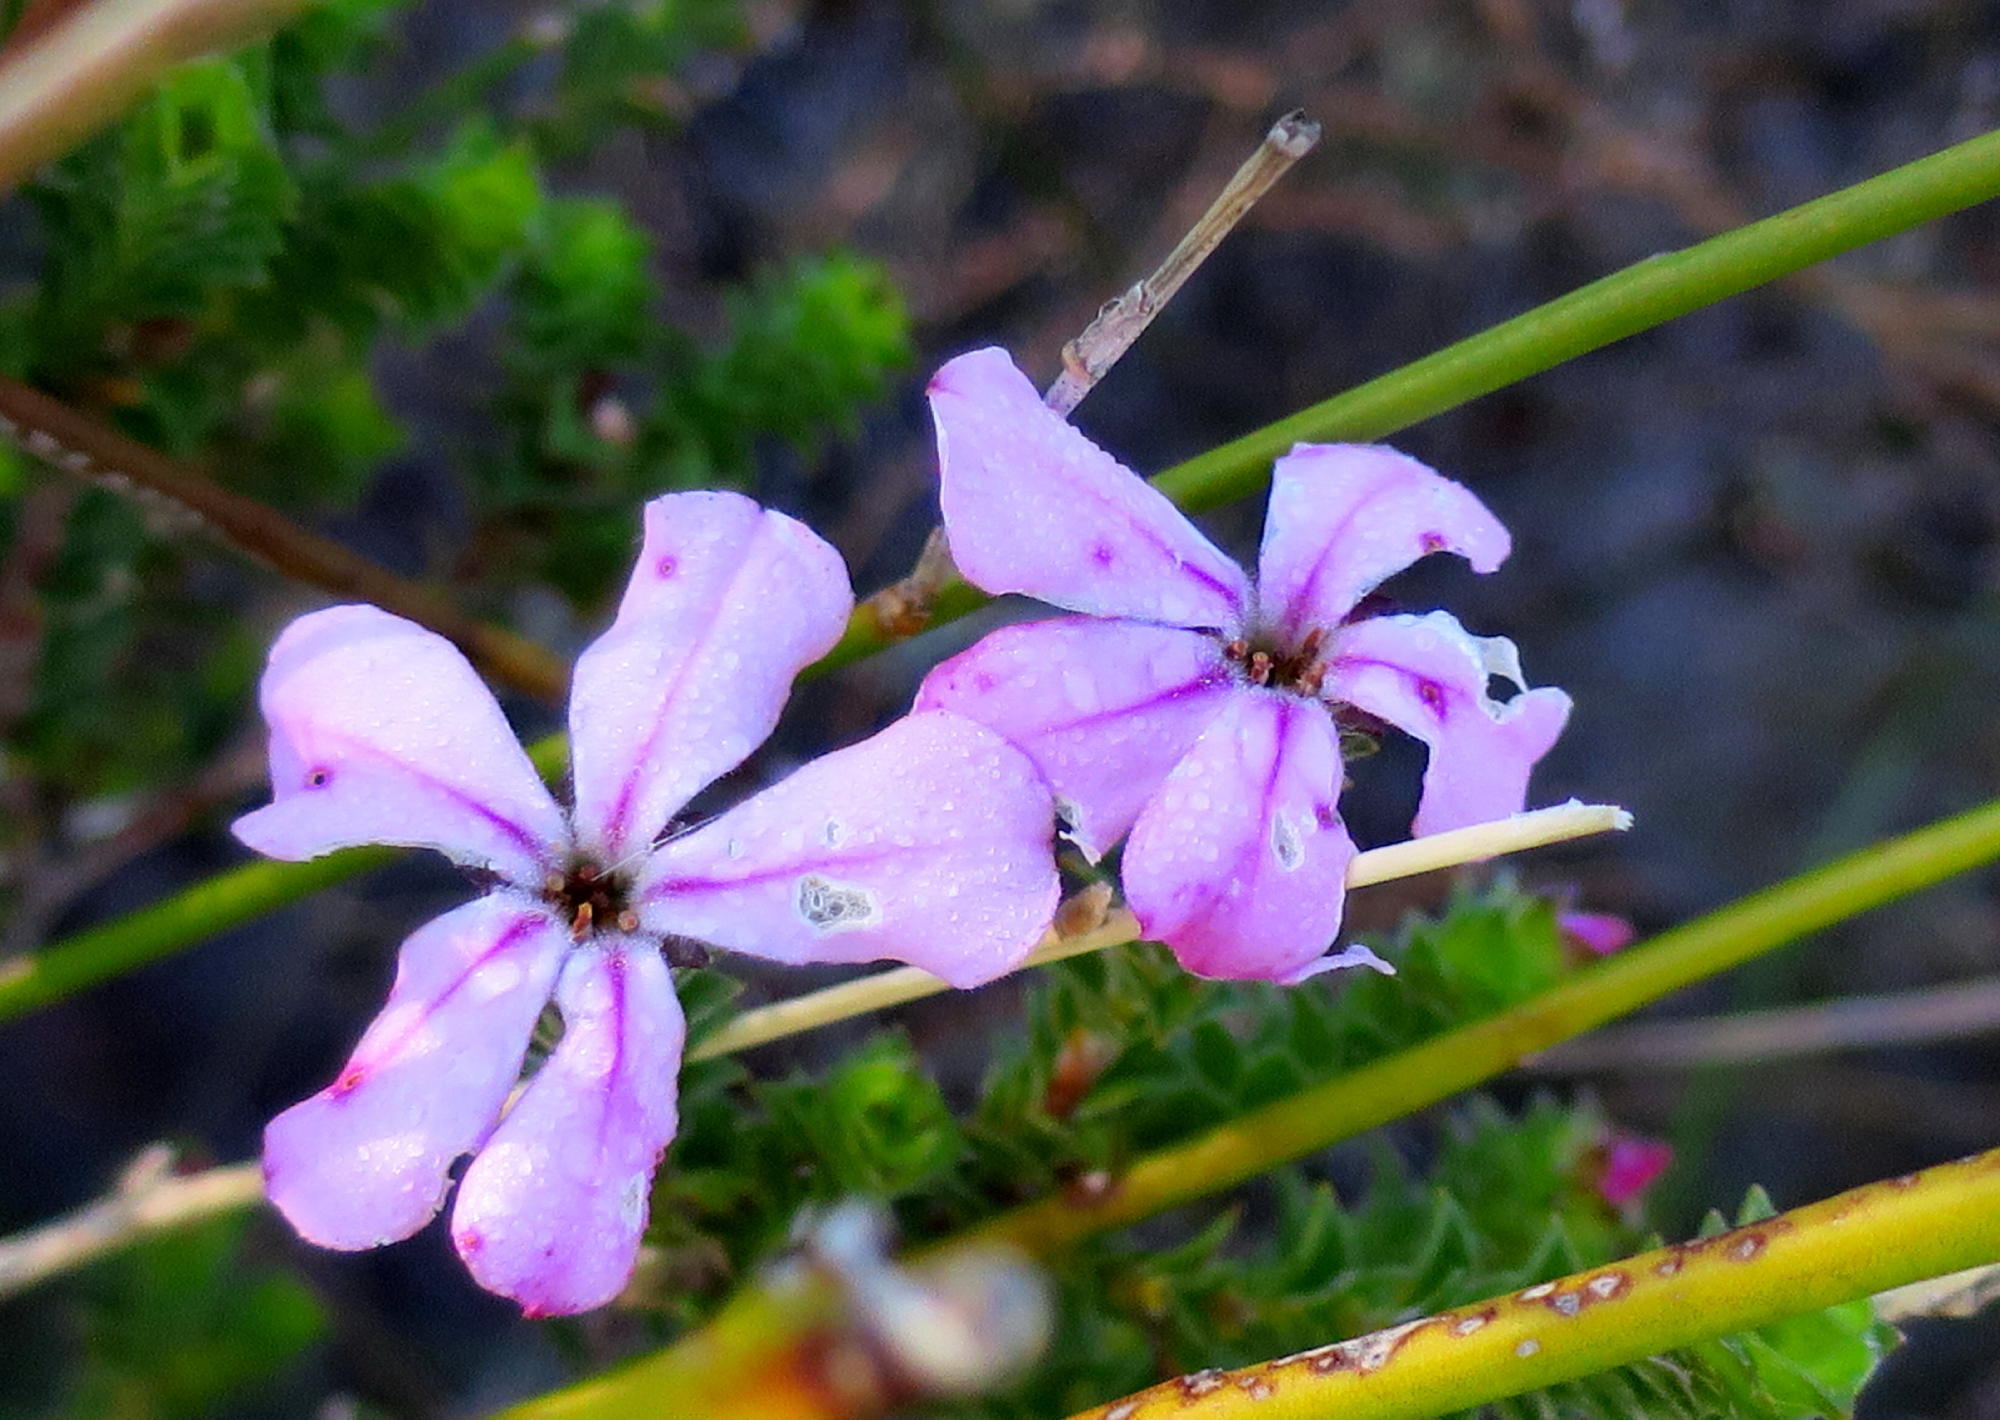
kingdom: Plantae
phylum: Tracheophyta
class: Magnoliopsida
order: Sapindales
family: Rutaceae
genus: Acmadenia
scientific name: Acmadenia tetragona
